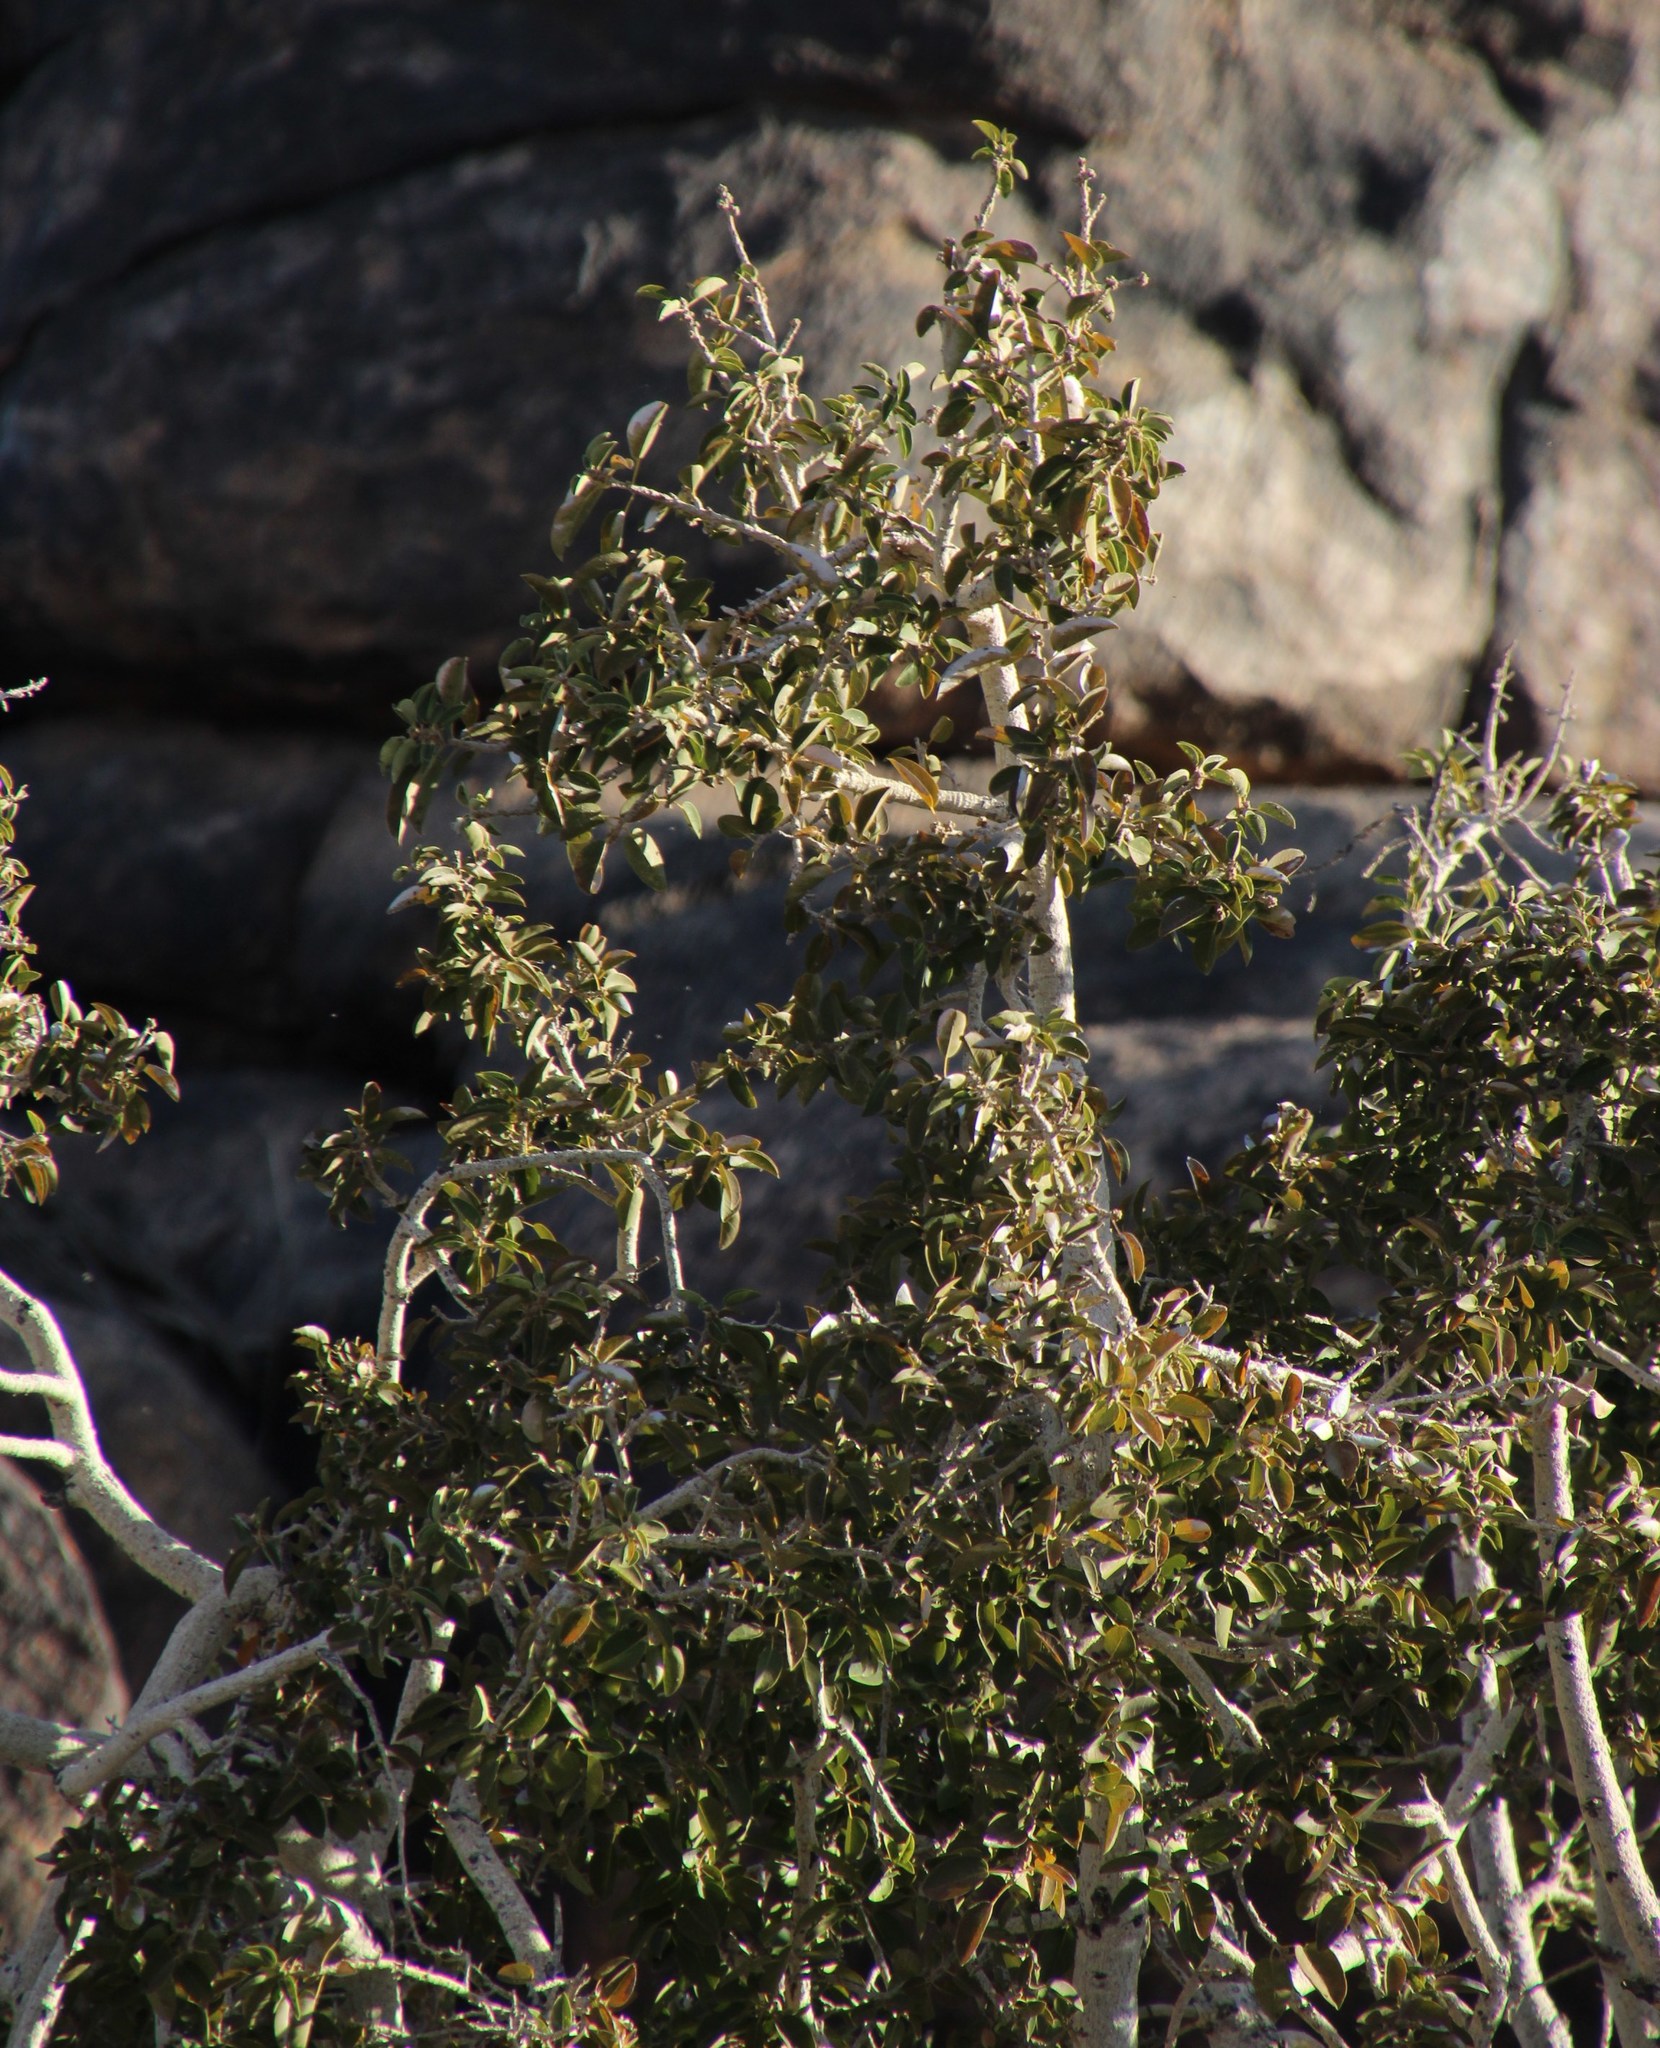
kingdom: Plantae
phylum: Tracheophyta
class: Magnoliopsida
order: Rosales
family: Moraceae
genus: Ficus
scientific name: Ficus cordata
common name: Namaqua rock fig
